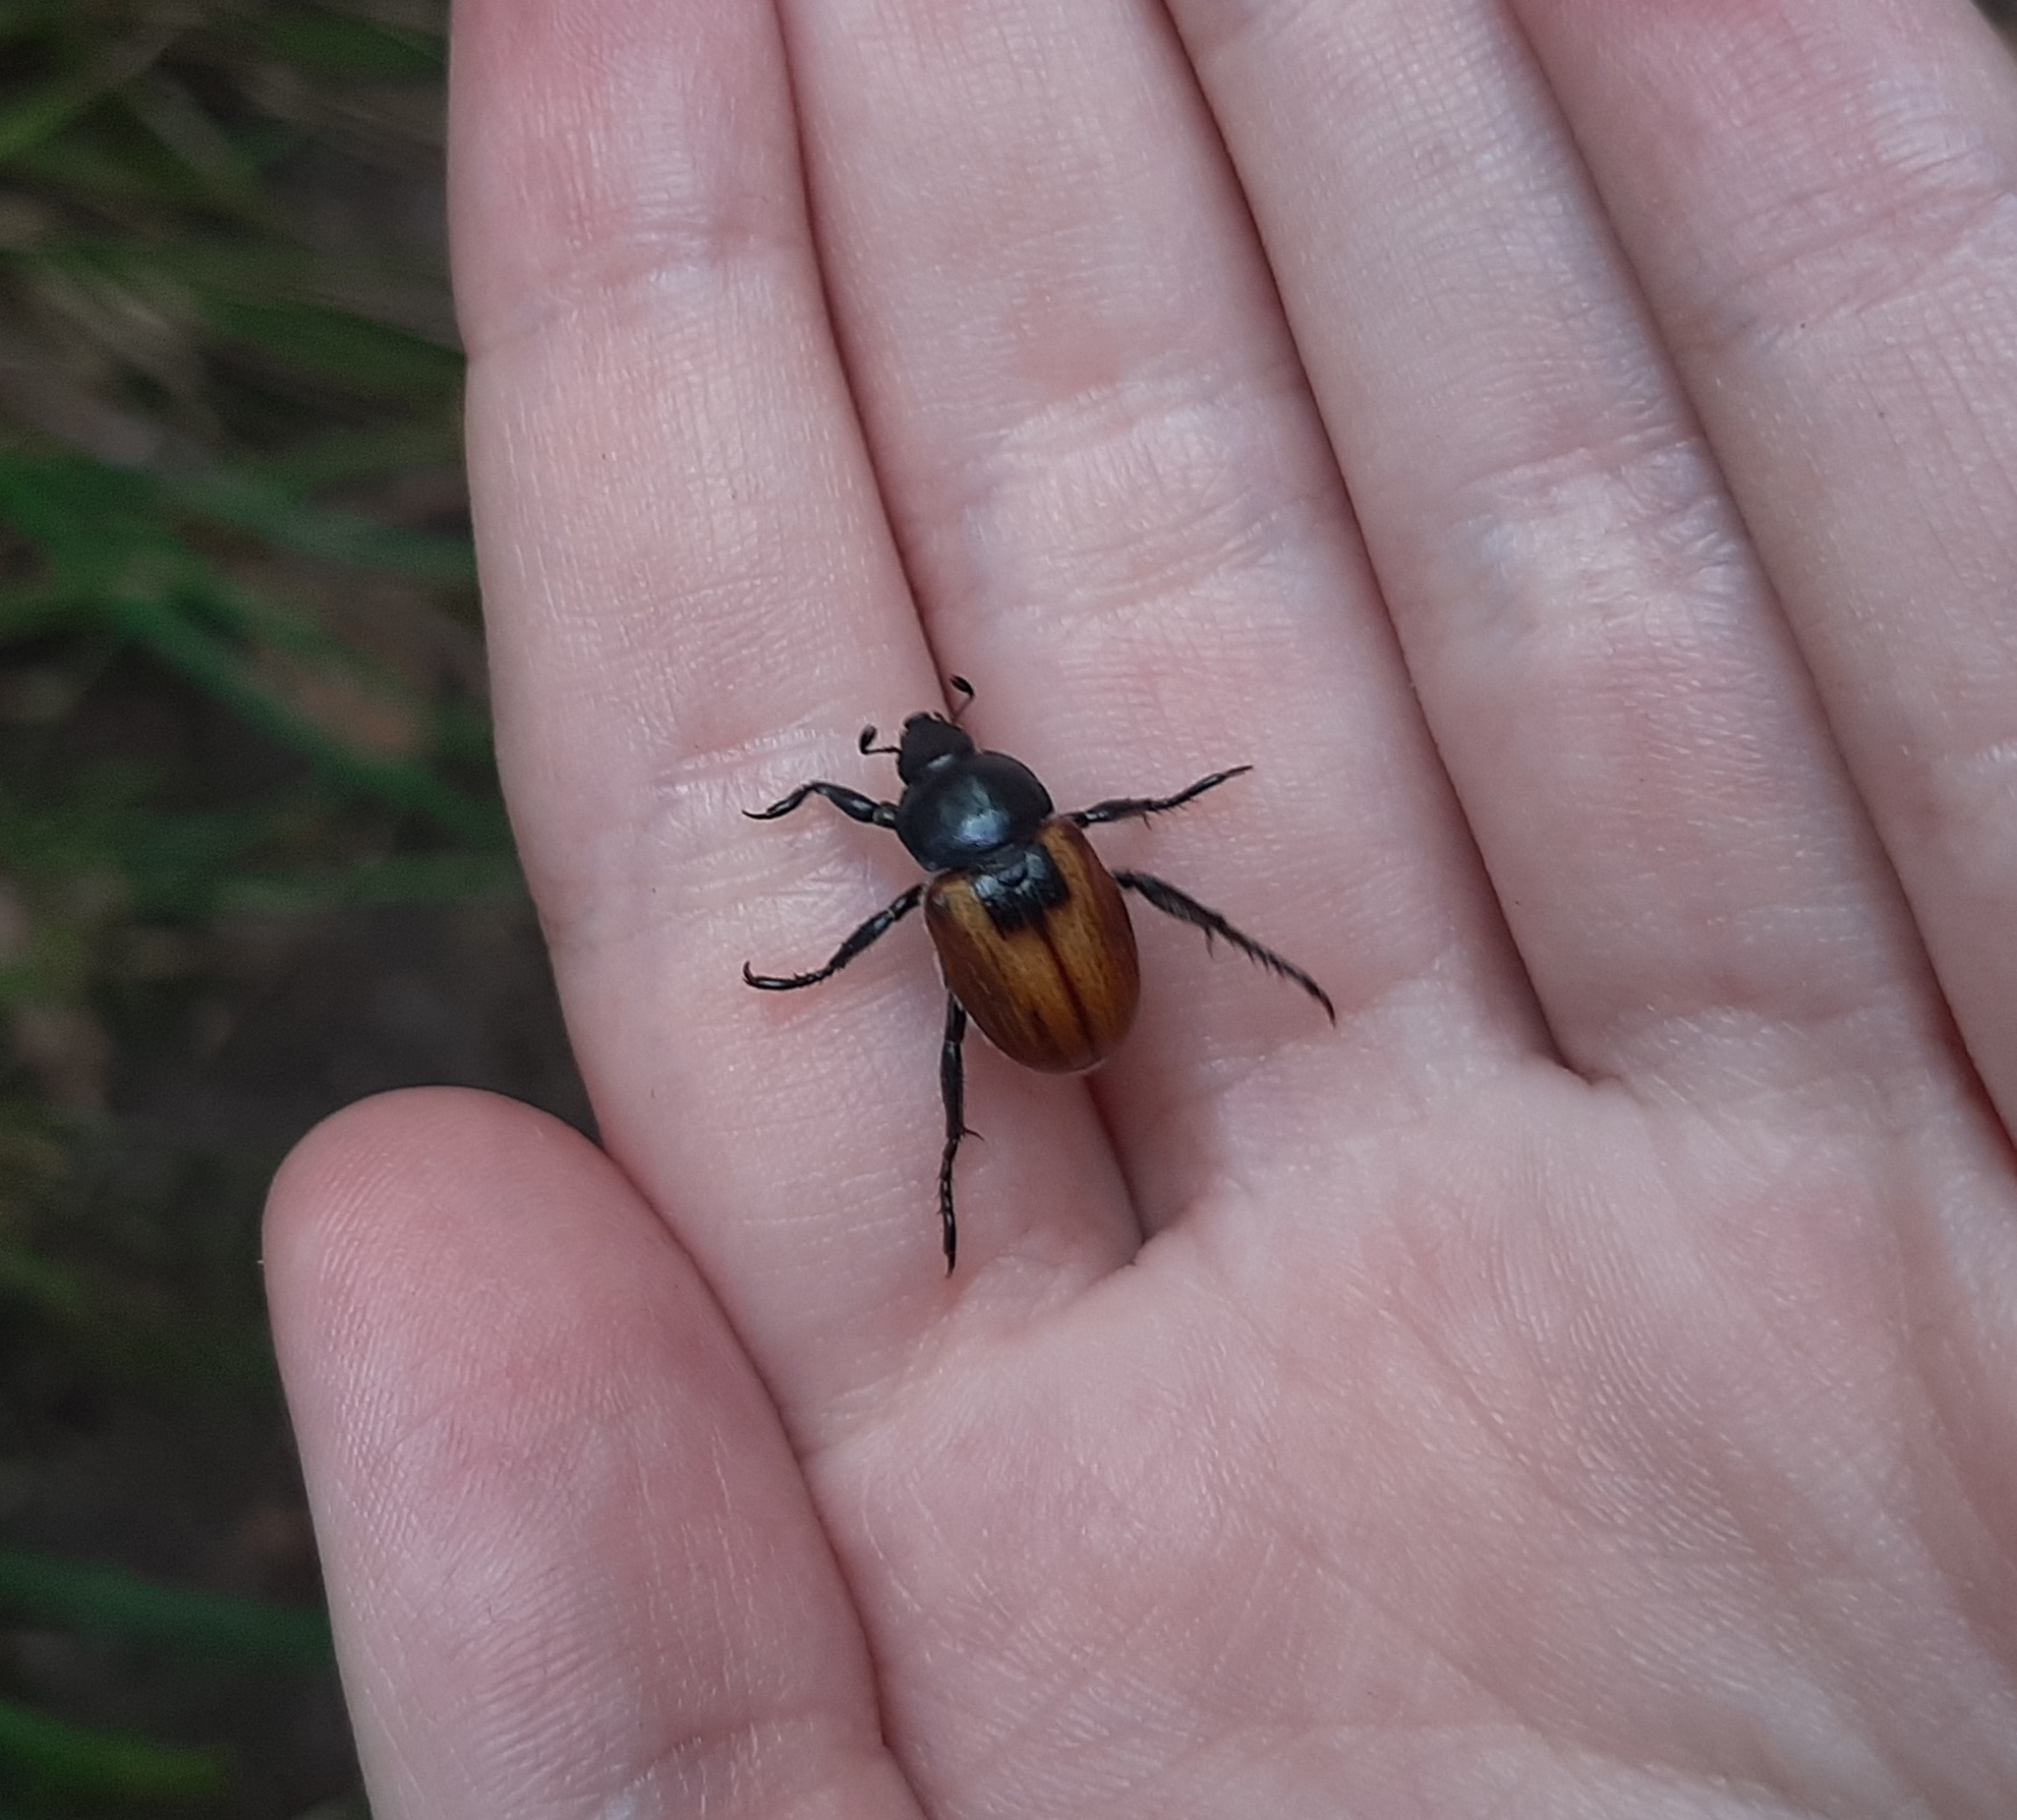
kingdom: Animalia
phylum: Arthropoda
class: Insecta
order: Coleoptera
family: Scarabaeidae
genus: Anisoplia
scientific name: Anisoplia austriaca
